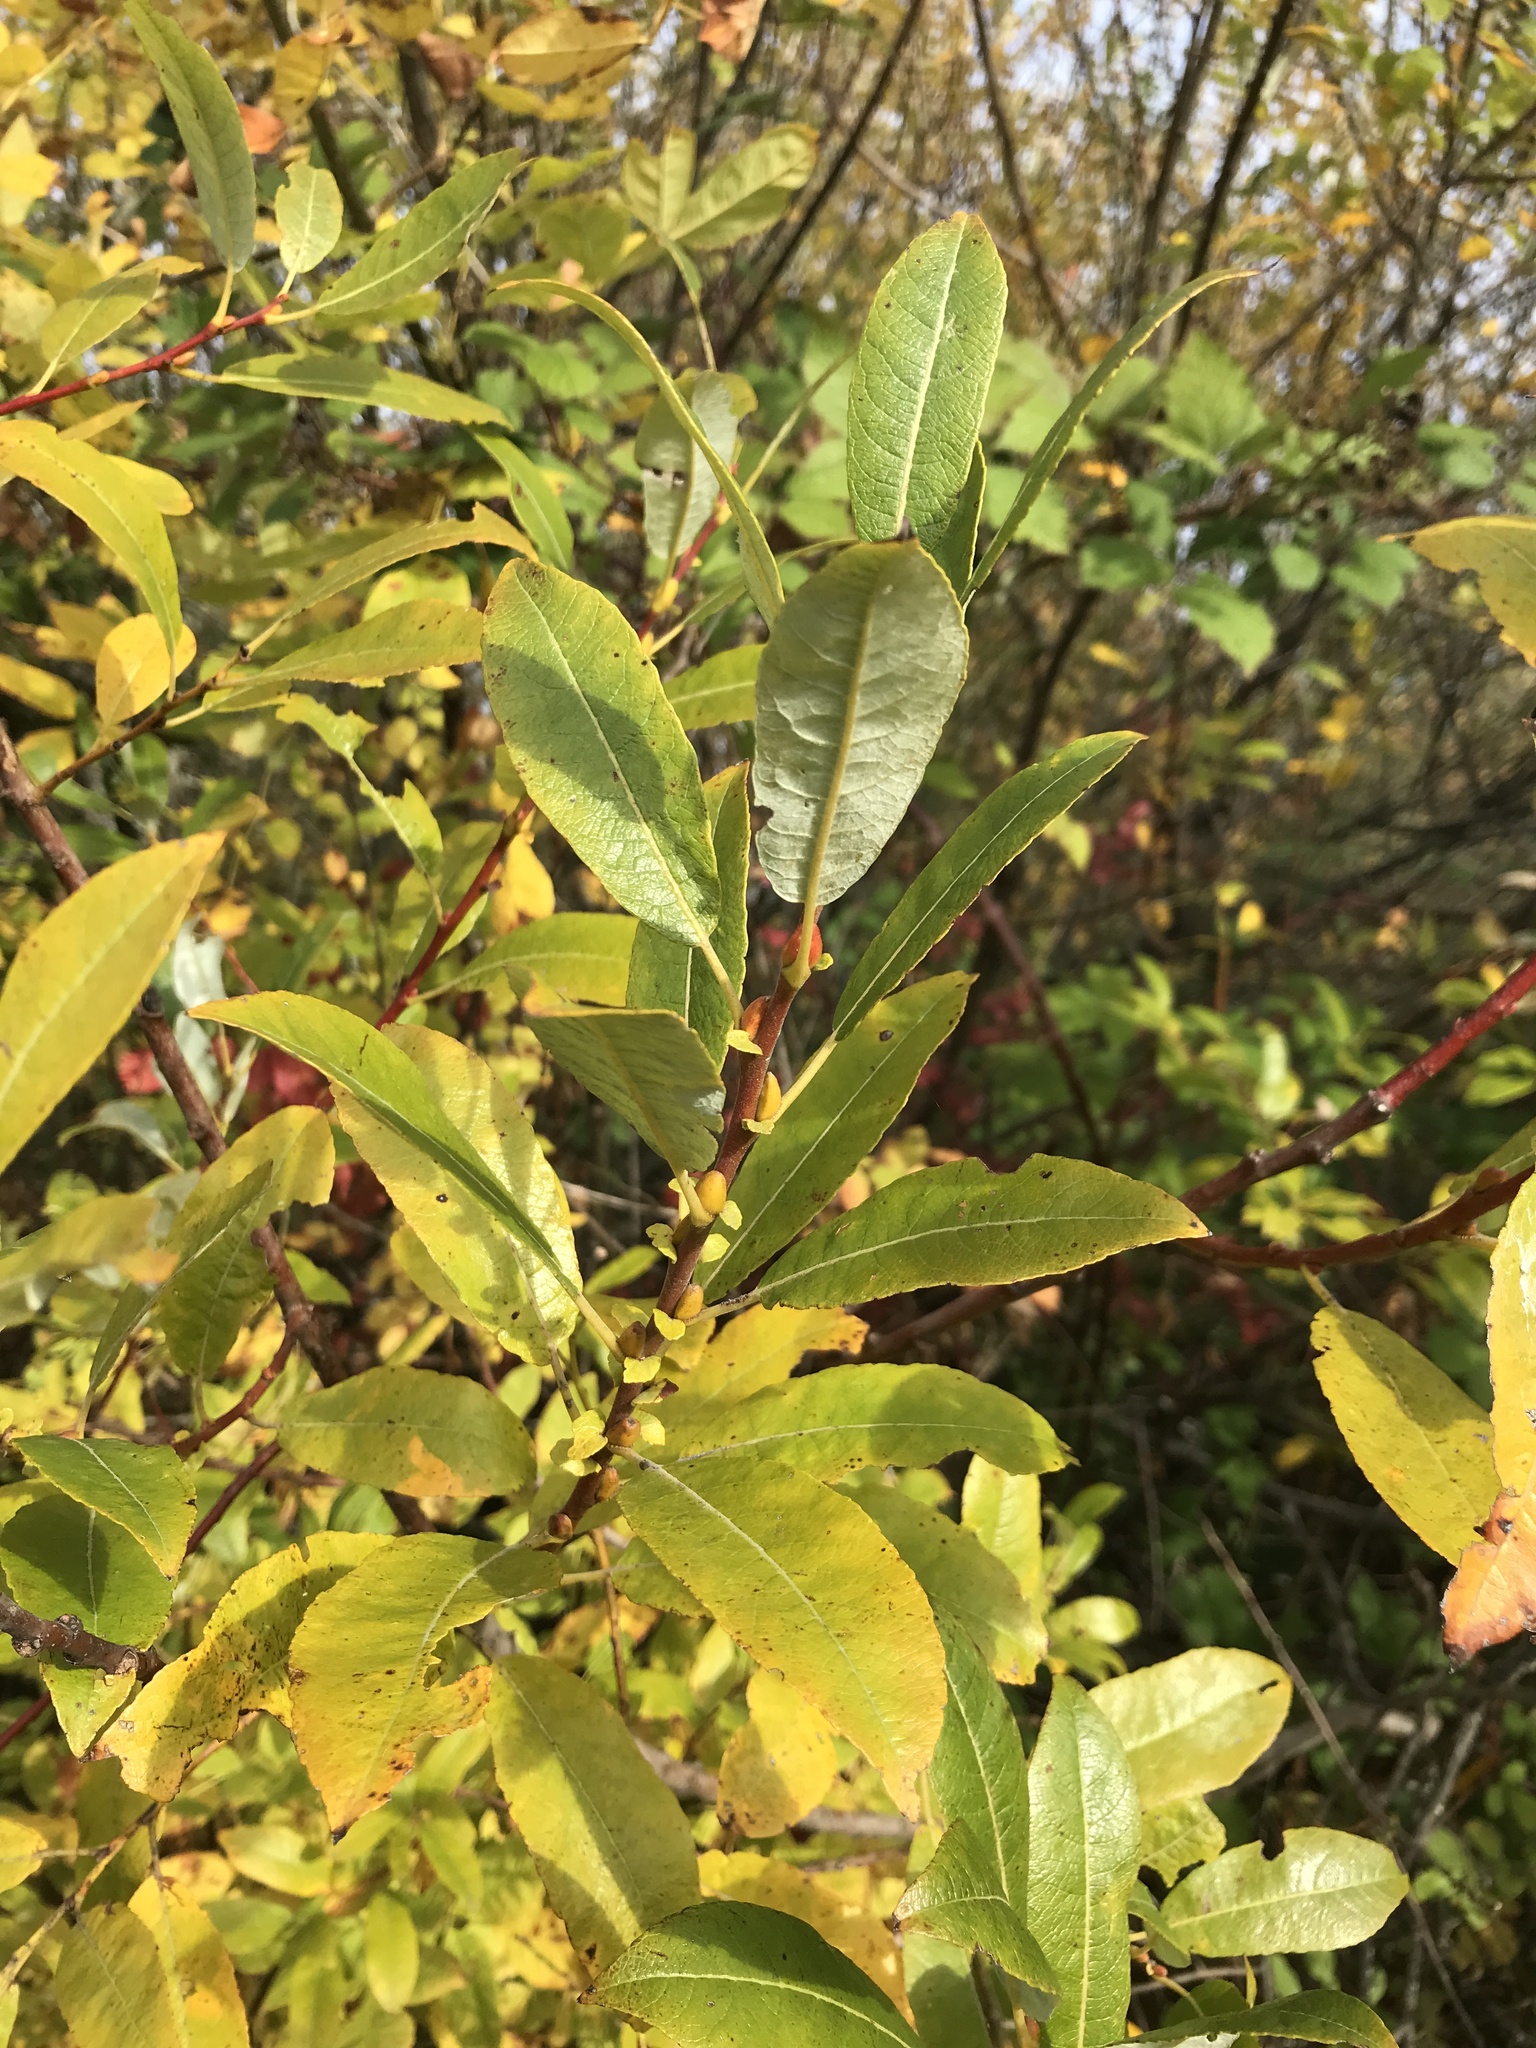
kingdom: Plantae
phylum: Tracheophyta
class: Magnoliopsida
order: Malpighiales
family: Salicaceae
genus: Salix
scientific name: Salix hookeriana
